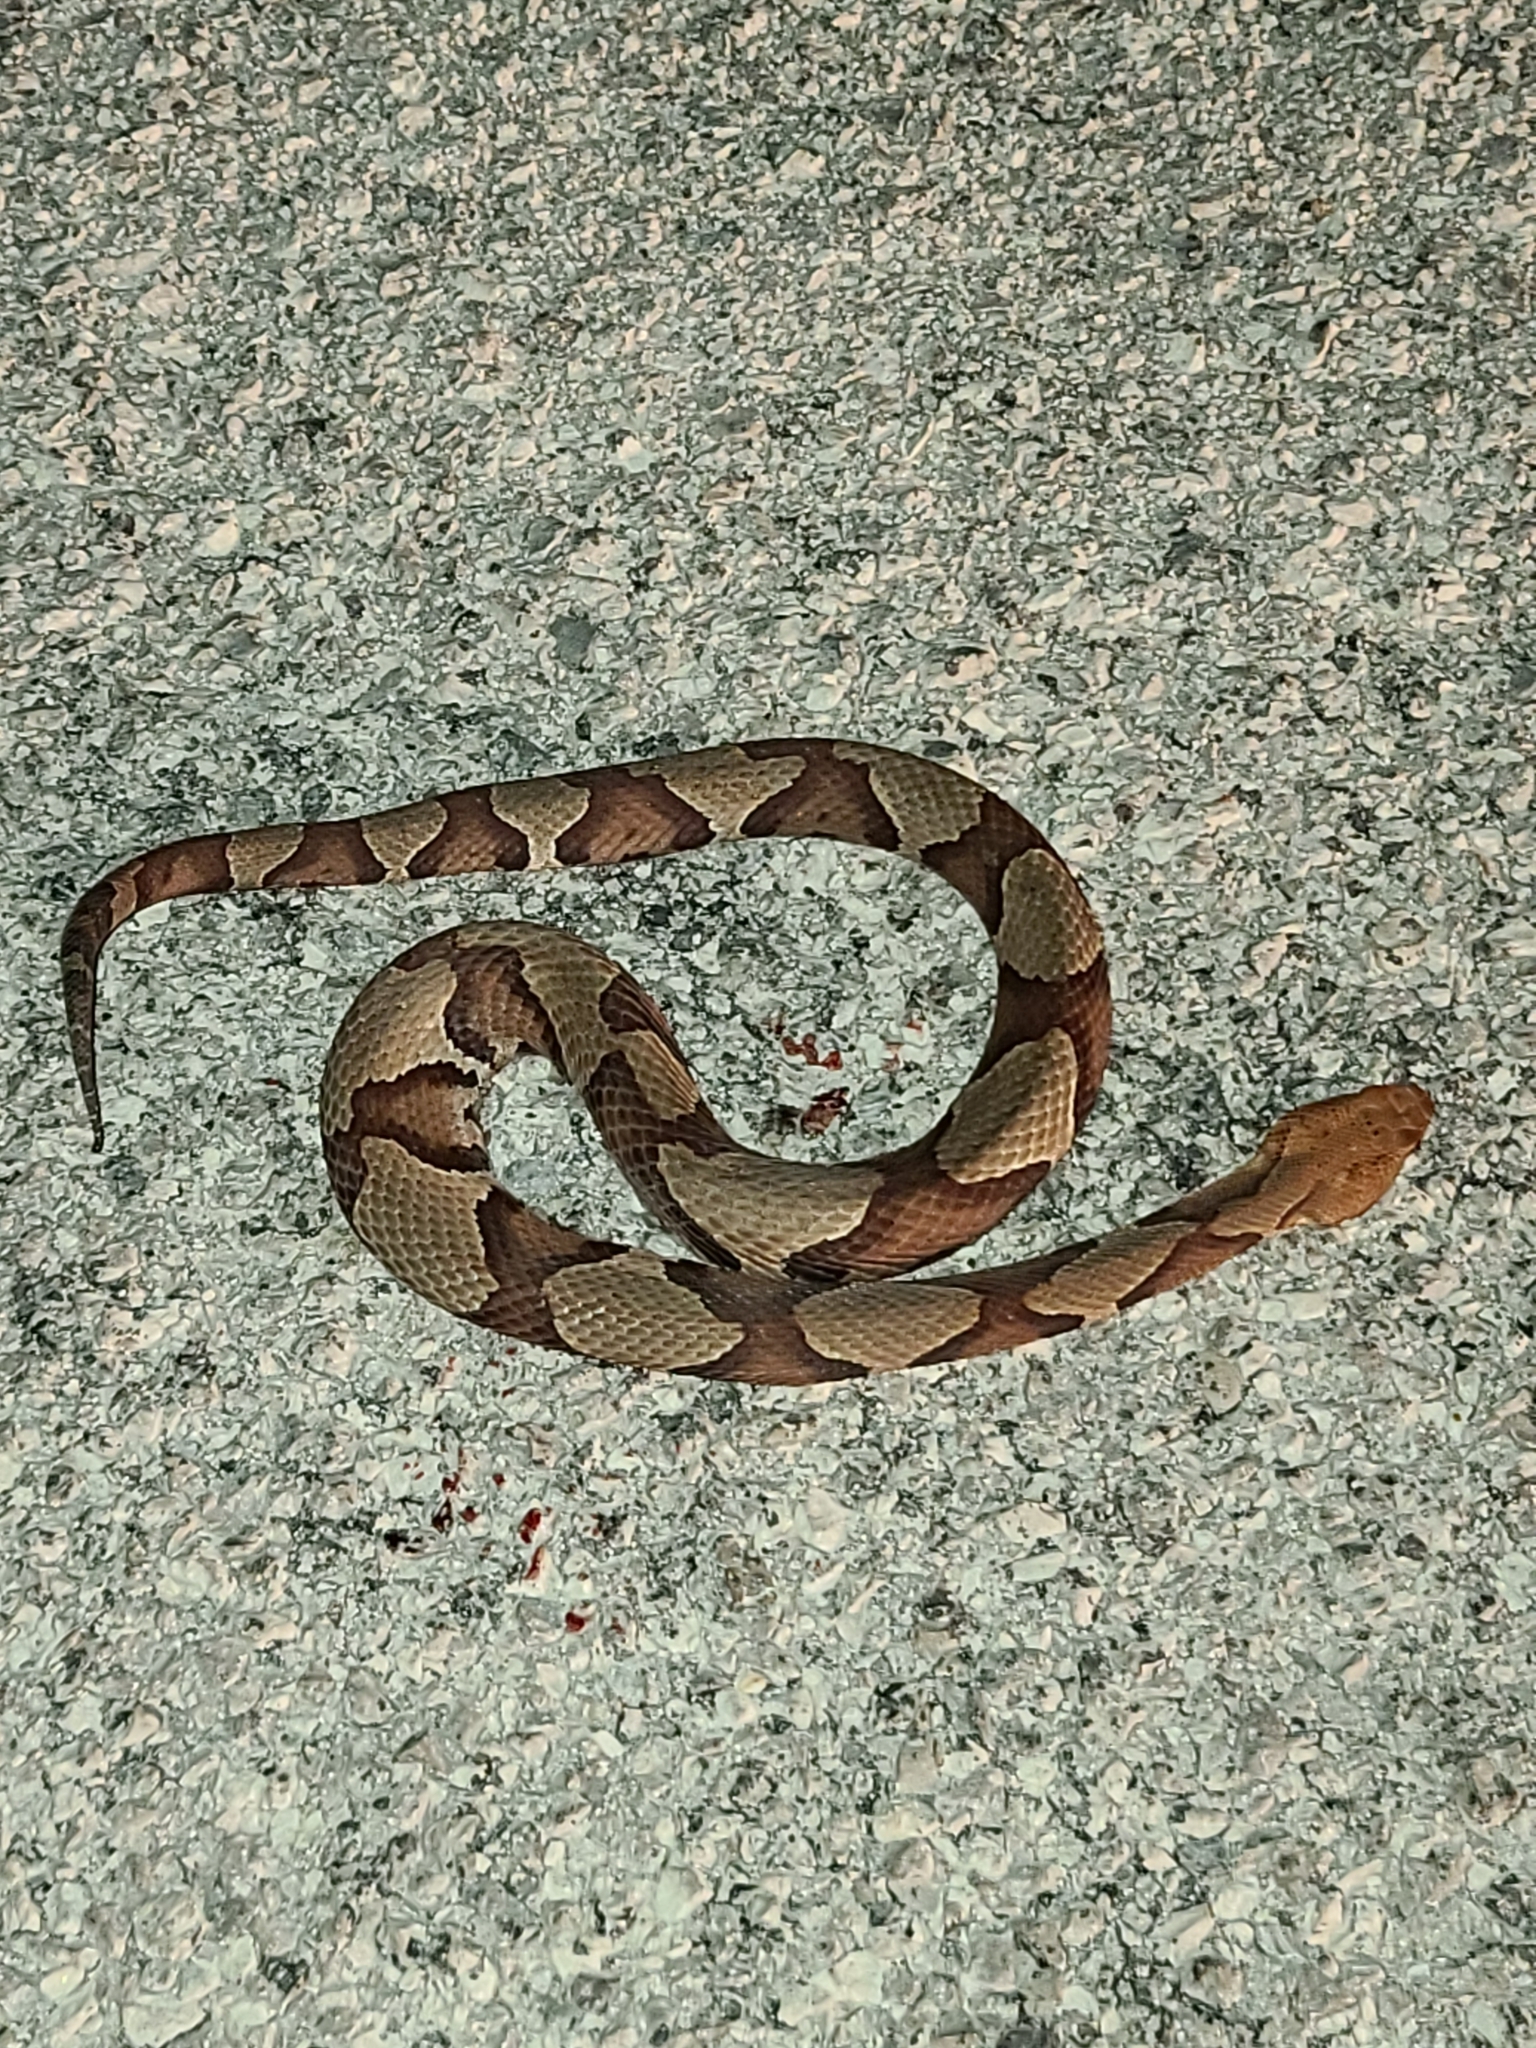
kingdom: Animalia
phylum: Chordata
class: Squamata
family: Viperidae
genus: Agkistrodon
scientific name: Agkistrodon contortrix
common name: Northern copperhead
